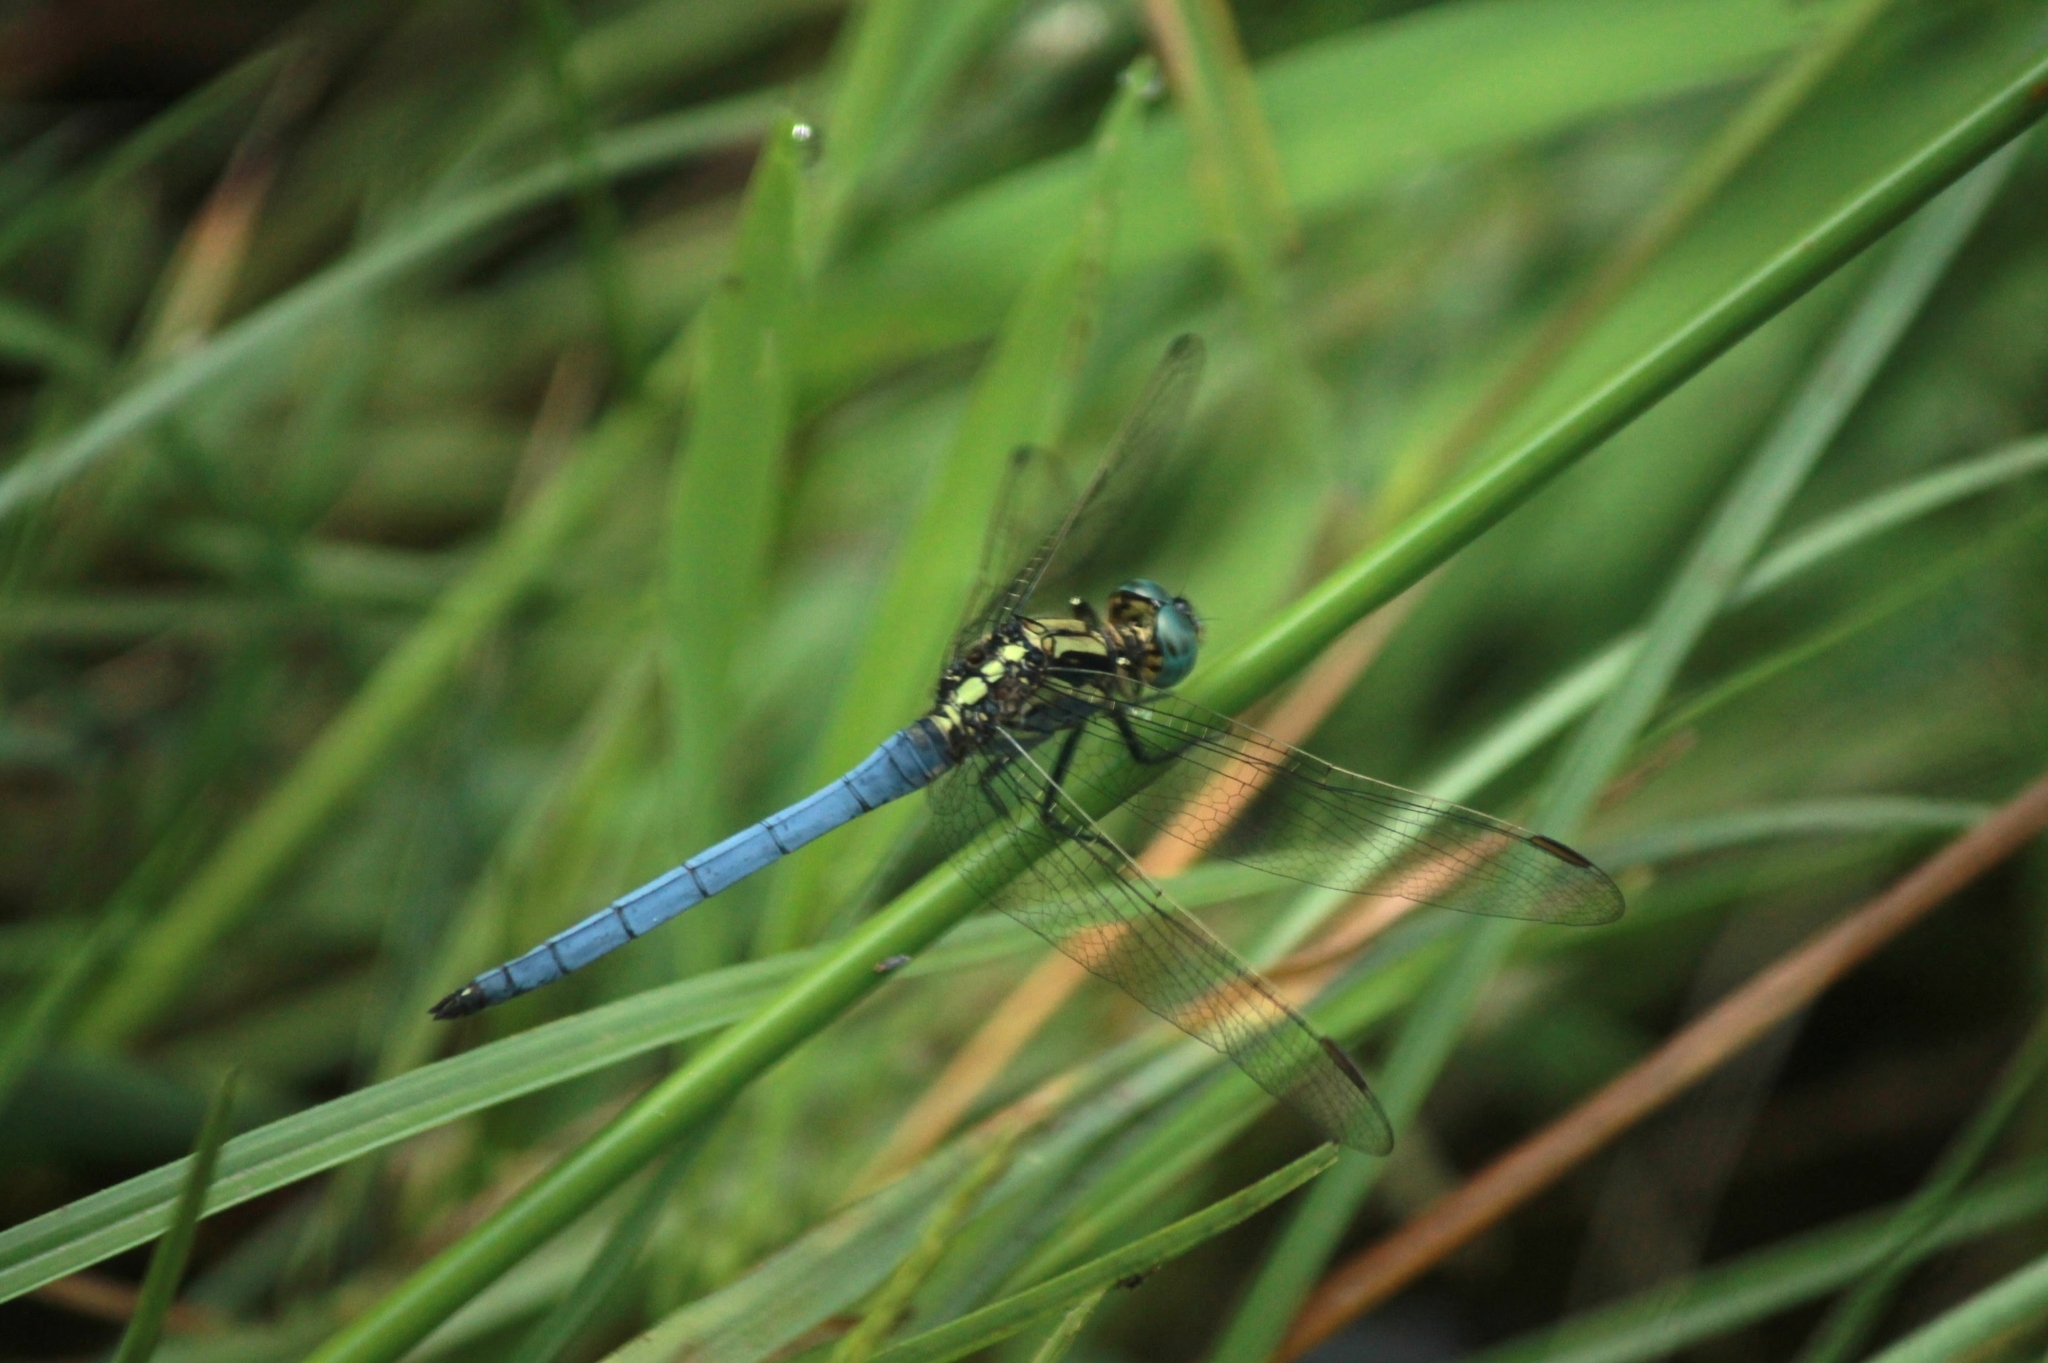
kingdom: Animalia
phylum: Arthropoda
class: Insecta
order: Odonata
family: Libellulidae
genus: Orthetrum
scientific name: Orthetrum luzonicum
